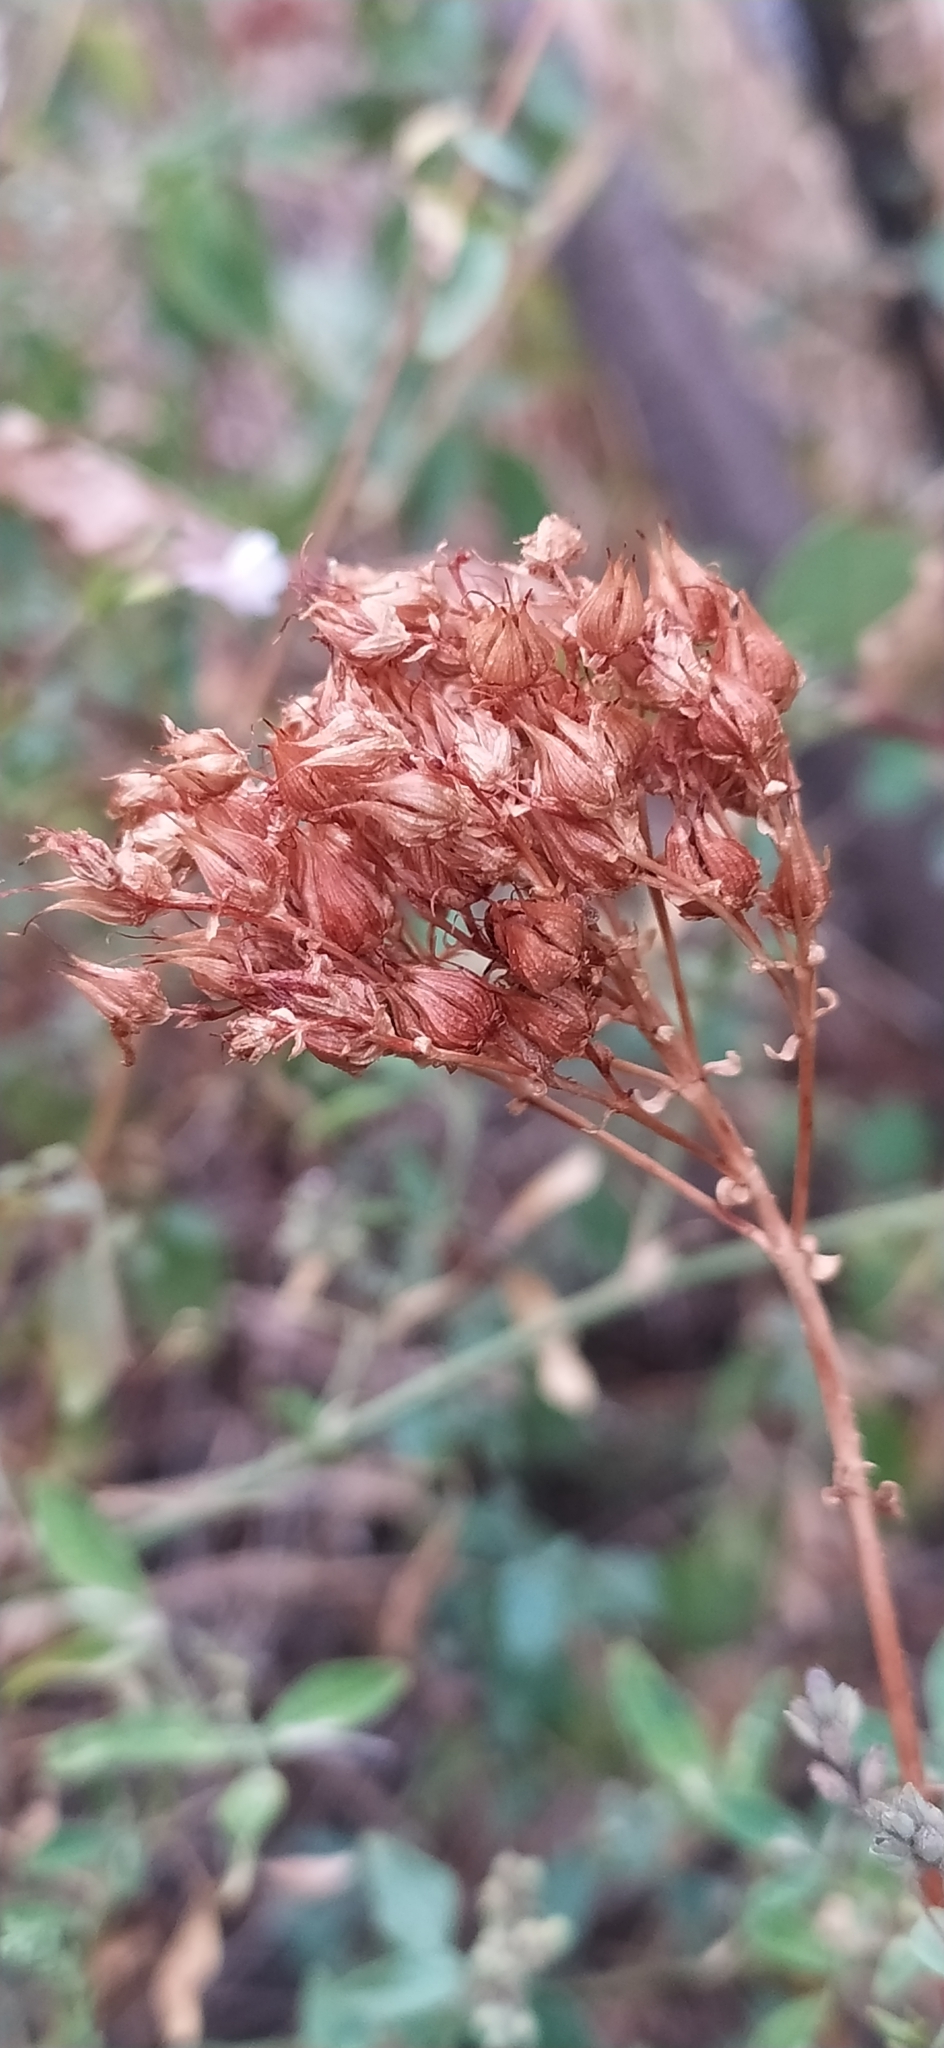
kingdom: Plantae
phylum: Tracheophyta
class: Magnoliopsida
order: Malpighiales
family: Hypericaceae
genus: Hypericum
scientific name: Hypericum scabrum
